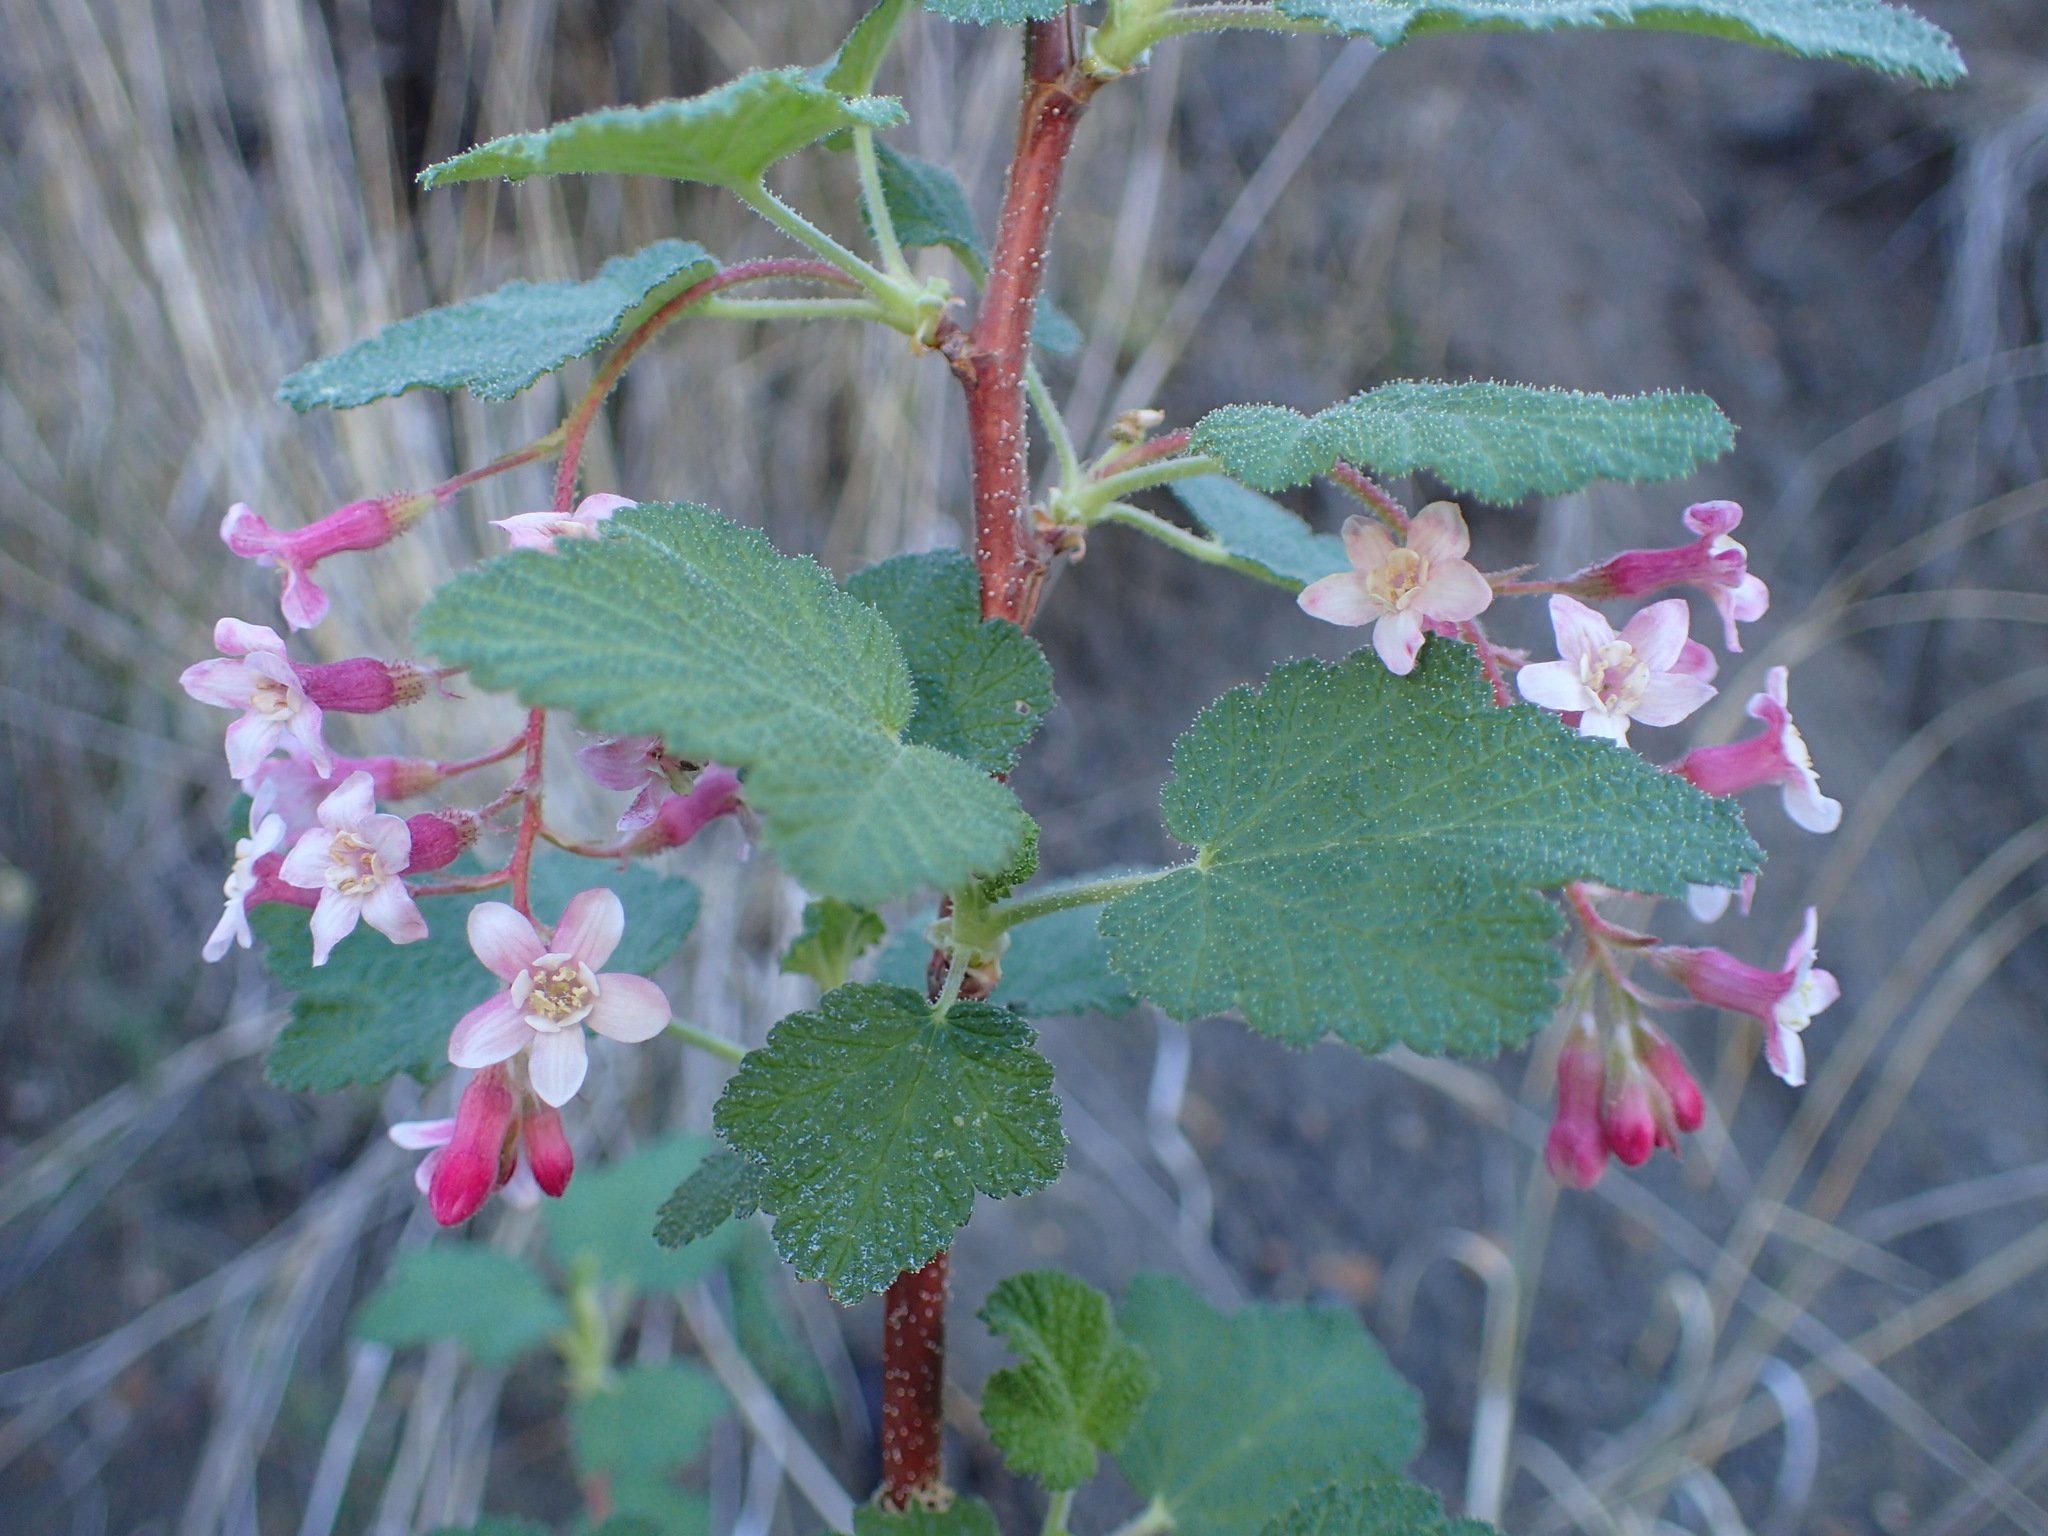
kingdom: Plantae
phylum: Tracheophyta
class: Magnoliopsida
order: Saxifragales
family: Grossulariaceae
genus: Ribes
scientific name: Ribes malvaceum
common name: Chaparral currant
